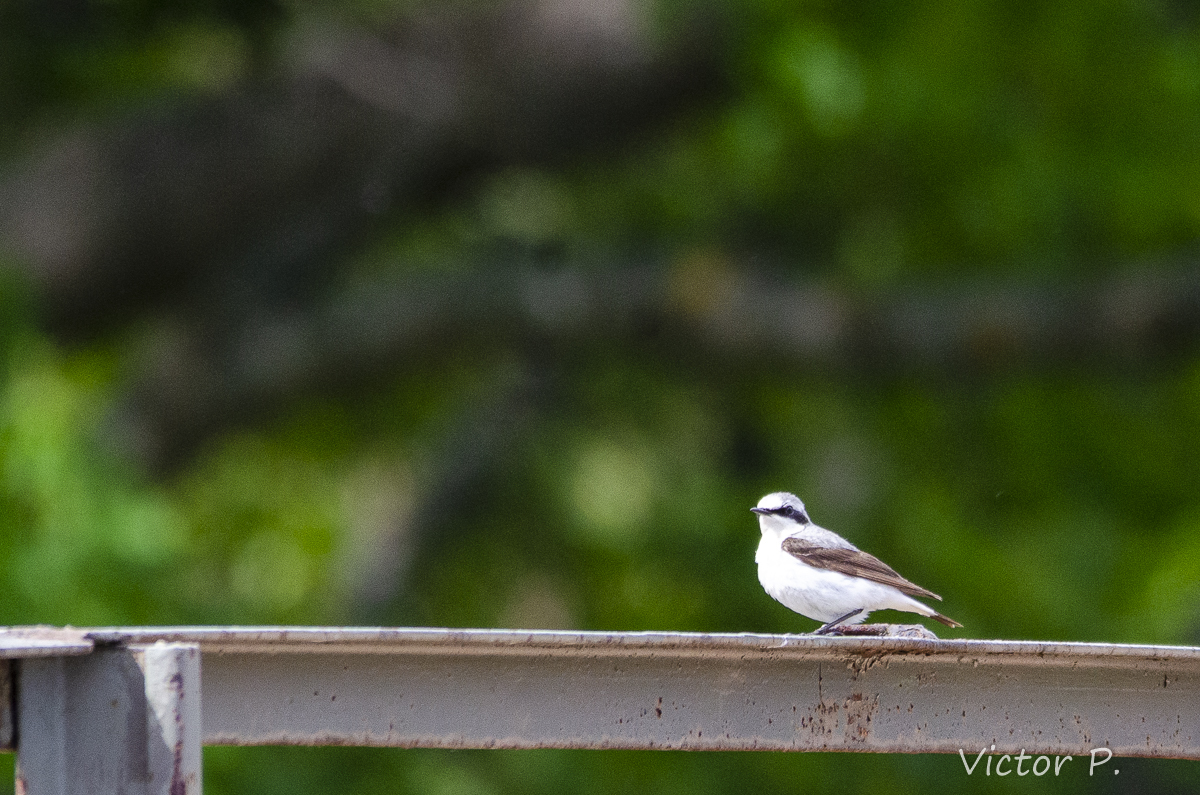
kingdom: Animalia
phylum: Chordata
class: Aves
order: Passeriformes
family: Muscicapidae
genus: Oenanthe
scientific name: Oenanthe oenanthe
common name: Northern wheatear
